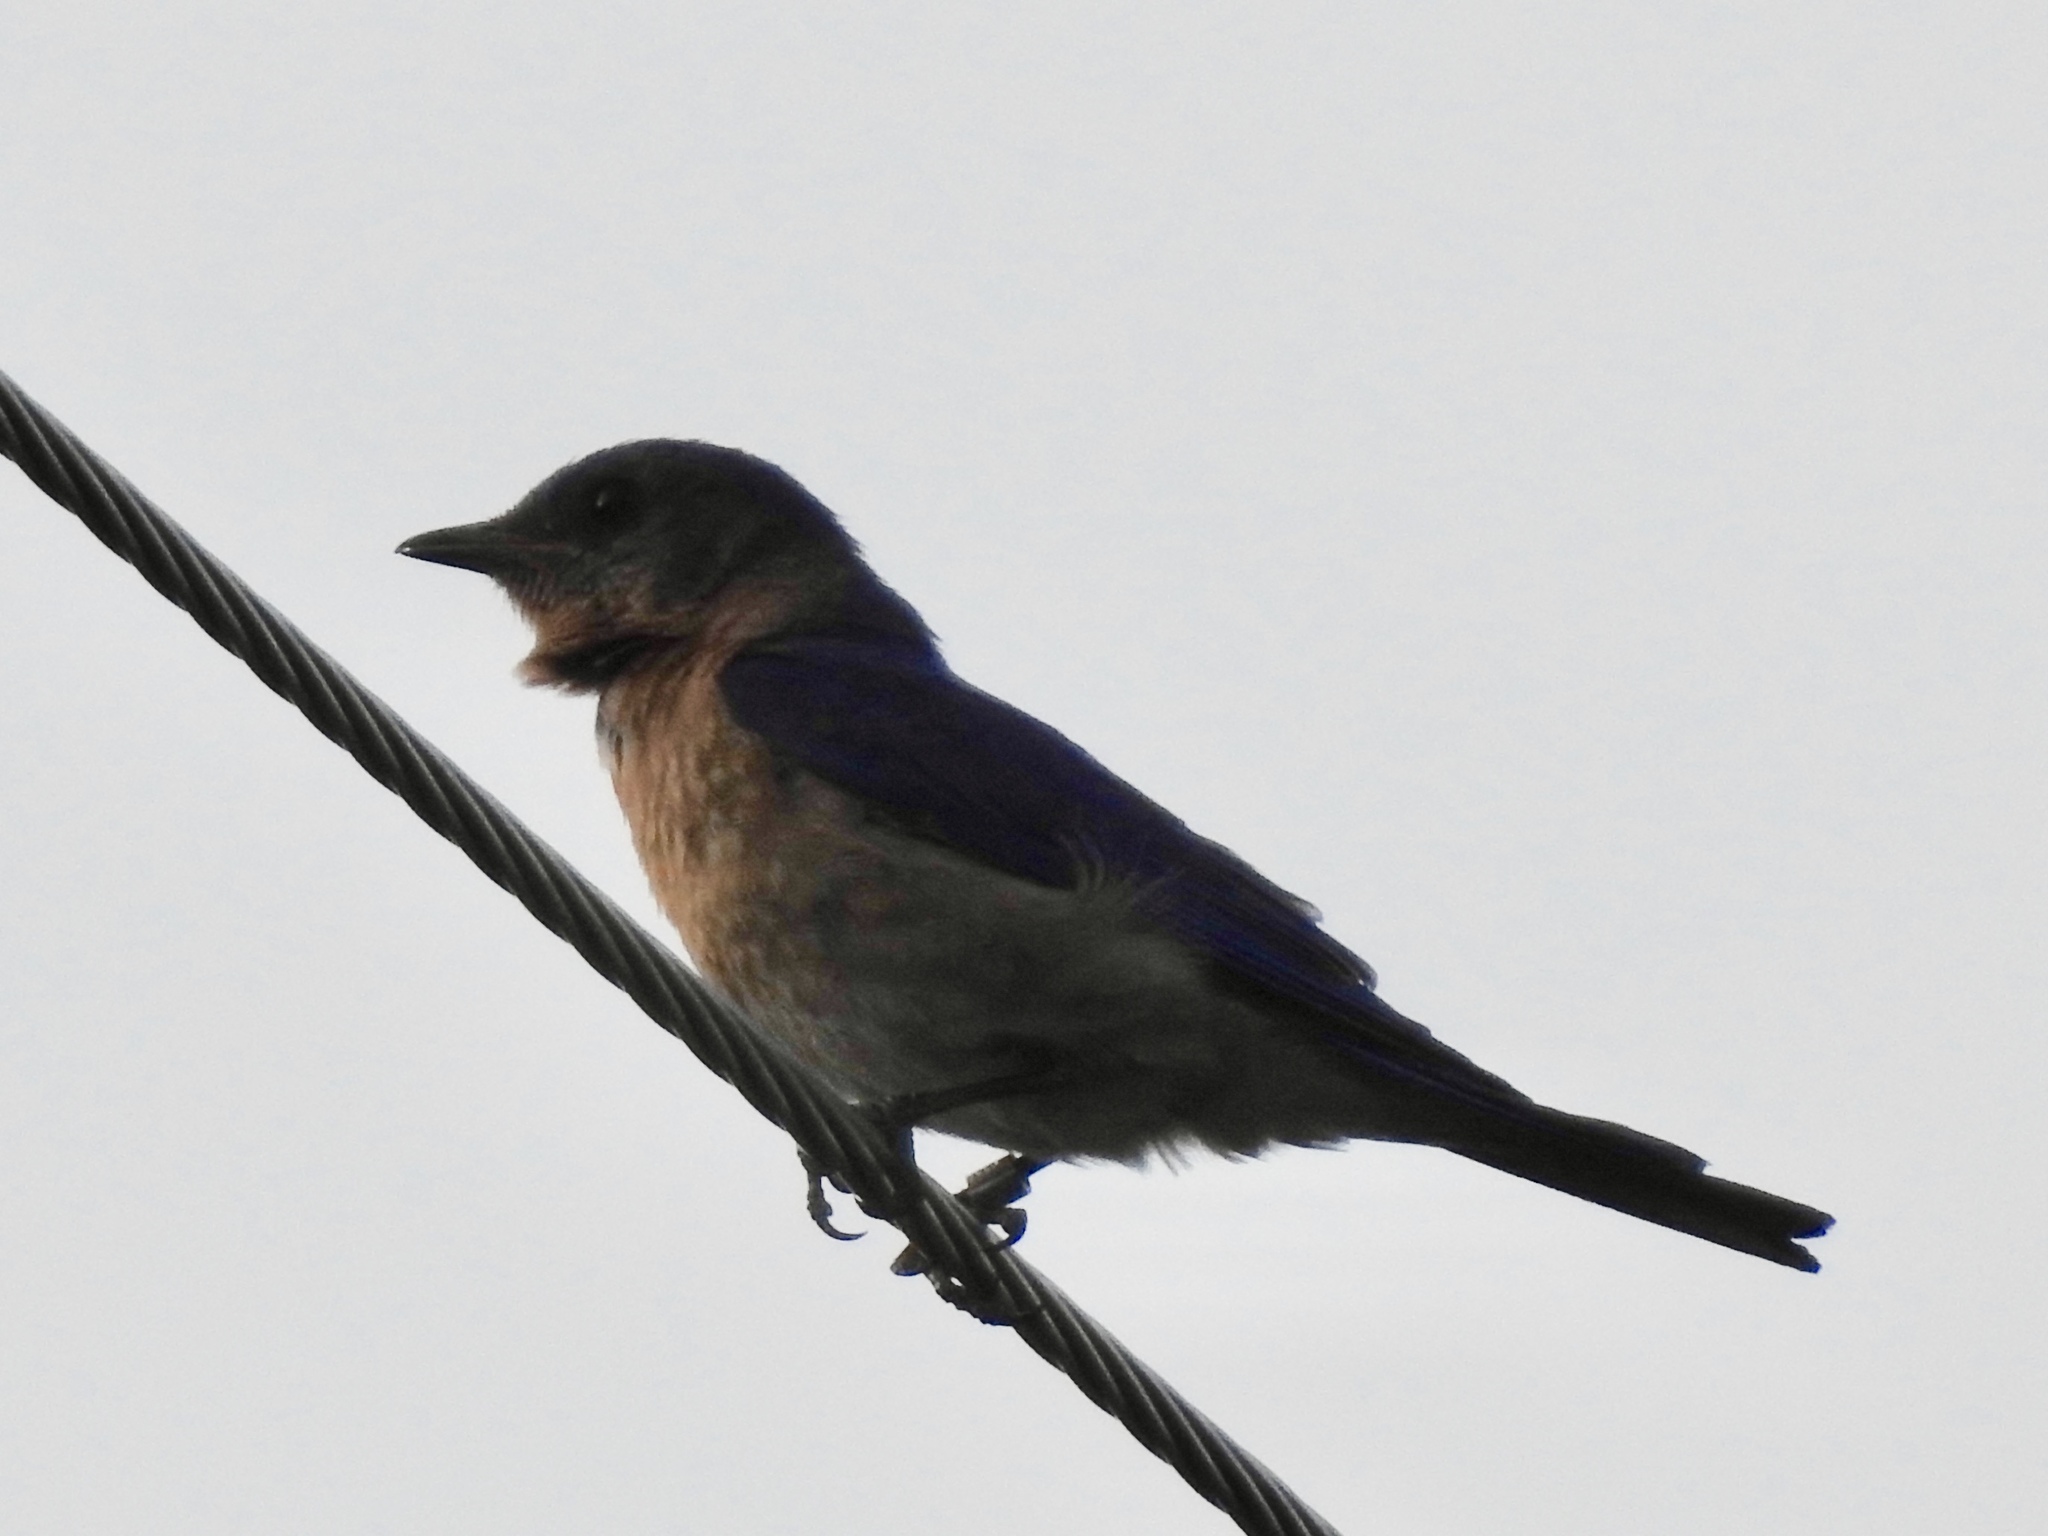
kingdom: Animalia
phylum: Chordata
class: Aves
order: Passeriformes
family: Turdidae
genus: Sialia
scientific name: Sialia sialis
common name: Eastern bluebird
